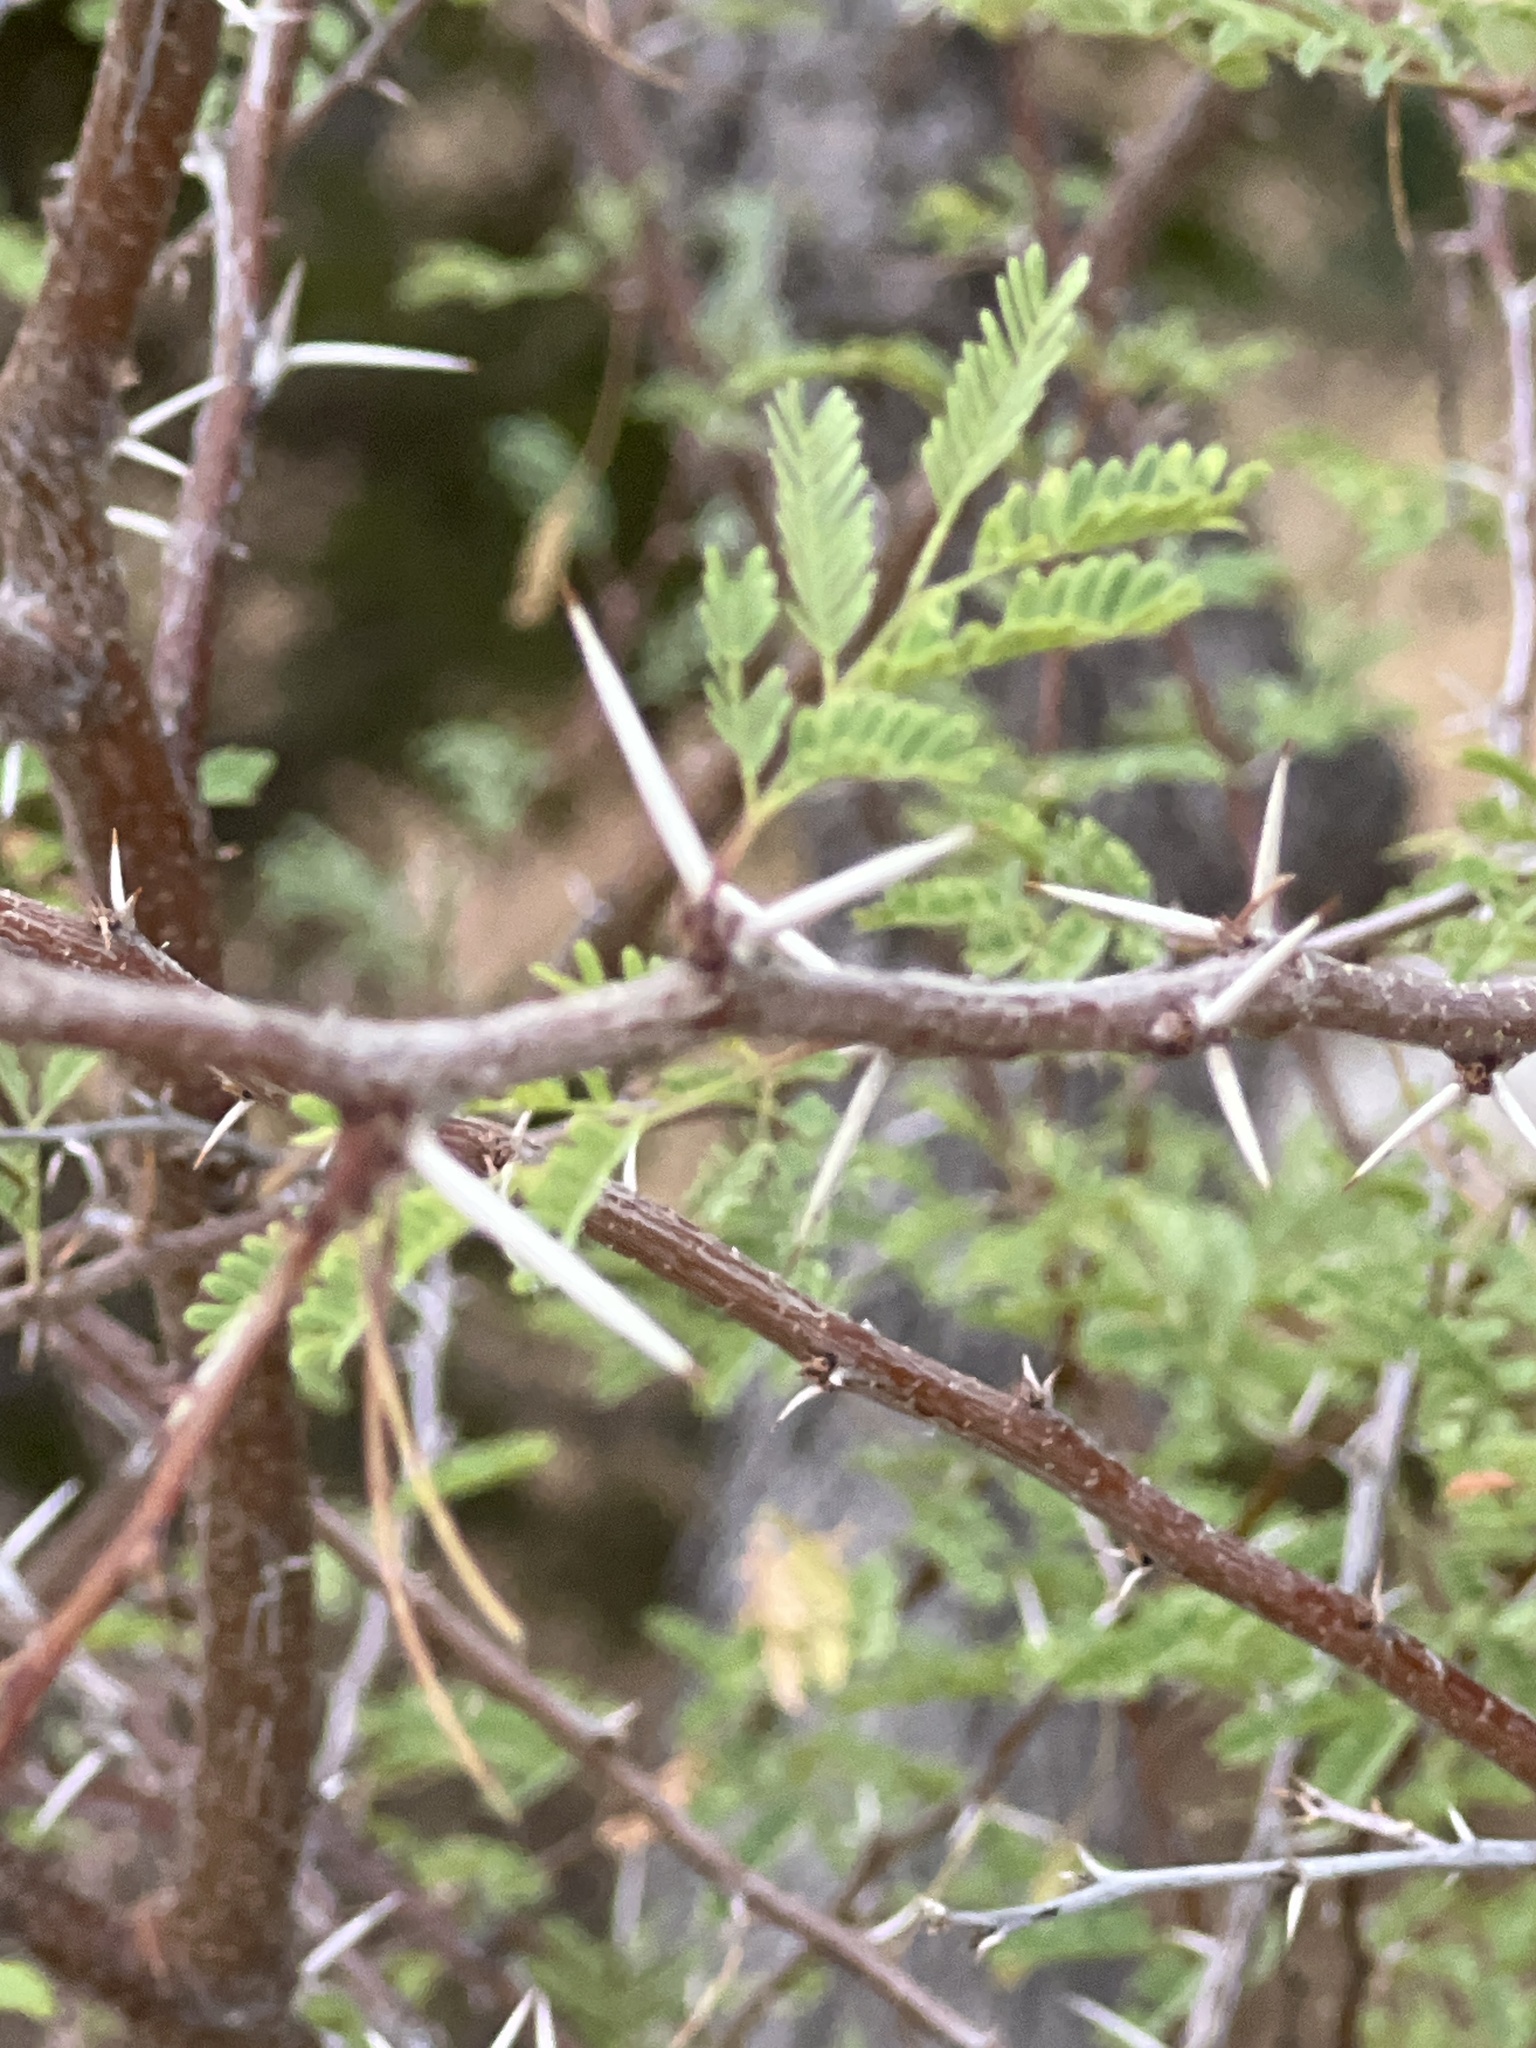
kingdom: Plantae
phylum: Tracheophyta
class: Magnoliopsida
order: Fabales
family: Fabaceae
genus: Vachellia
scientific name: Vachellia farnesiana
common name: Sweet acacia
